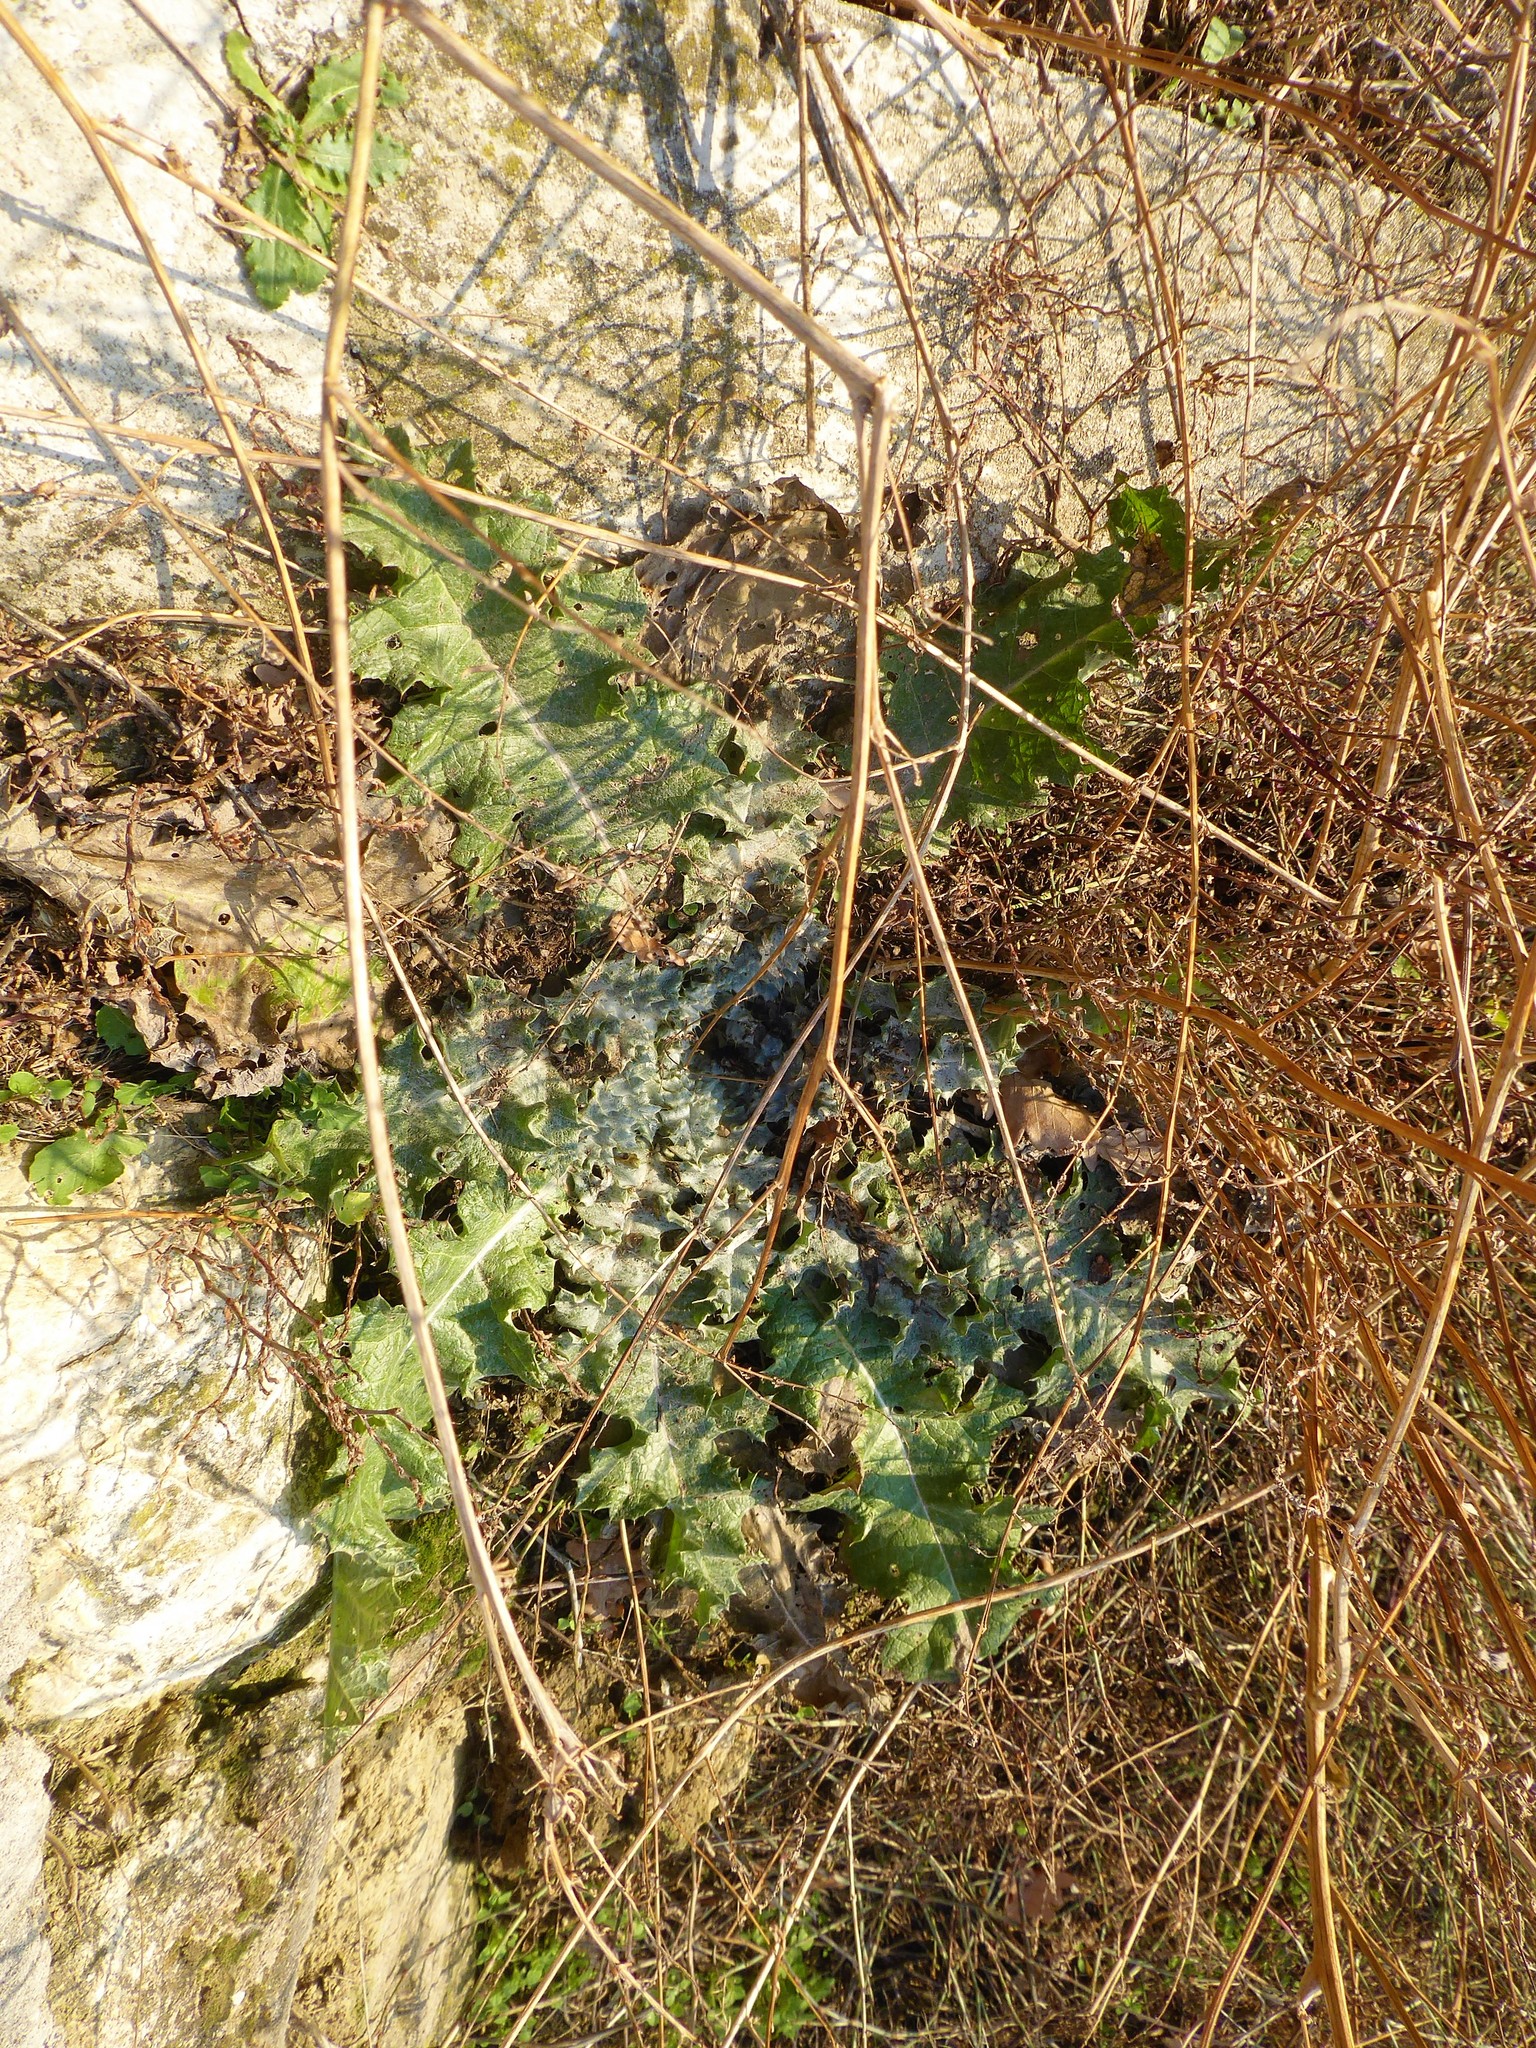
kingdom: Plantae
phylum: Tracheophyta
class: Magnoliopsida
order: Asterales
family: Asteraceae
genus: Onopordum
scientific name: Onopordum acanthium
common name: Scotch thistle
